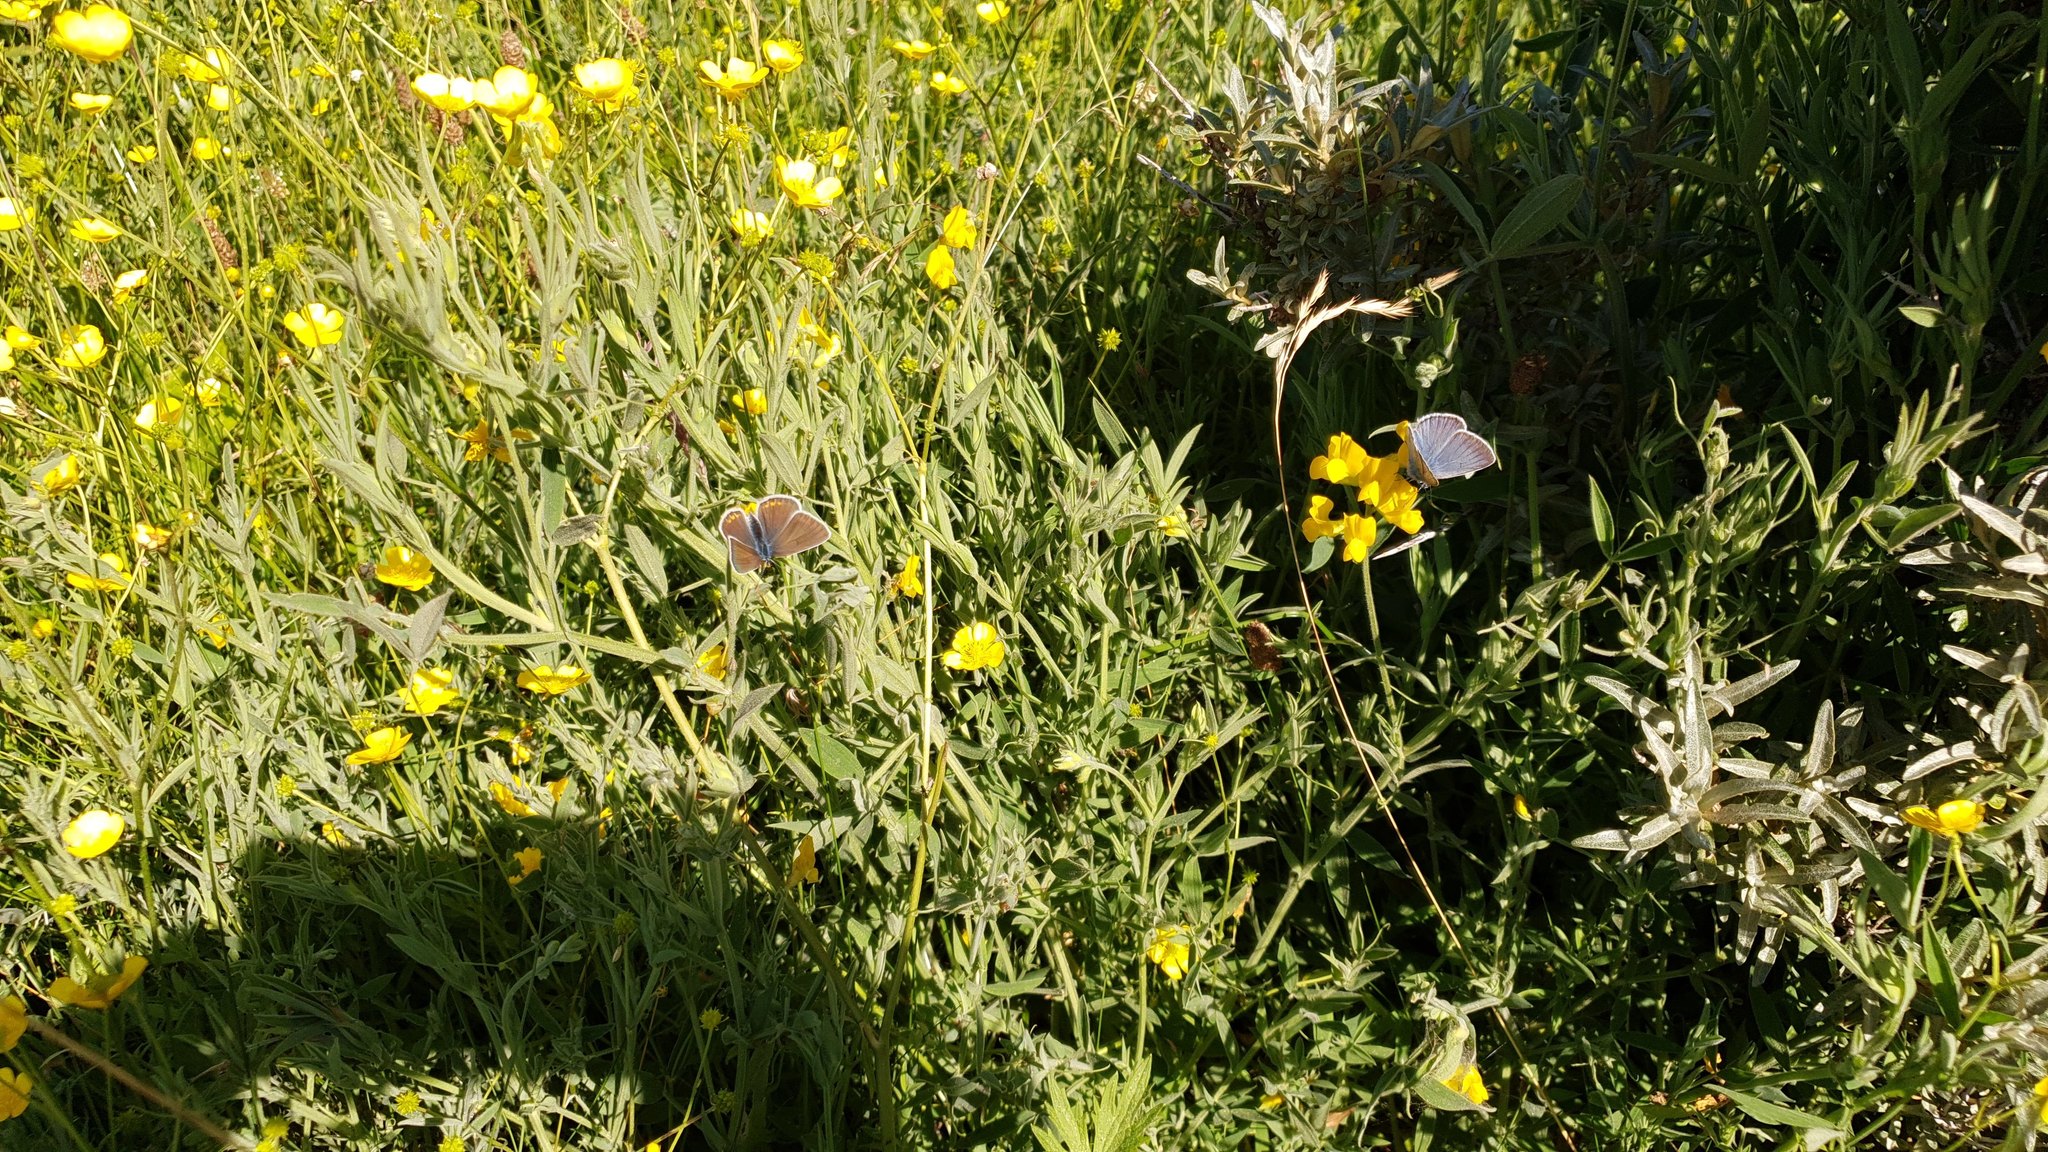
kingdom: Animalia
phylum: Arthropoda
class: Insecta
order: Lepidoptera
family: Lycaenidae
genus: Plebejus
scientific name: Plebejus amanda
